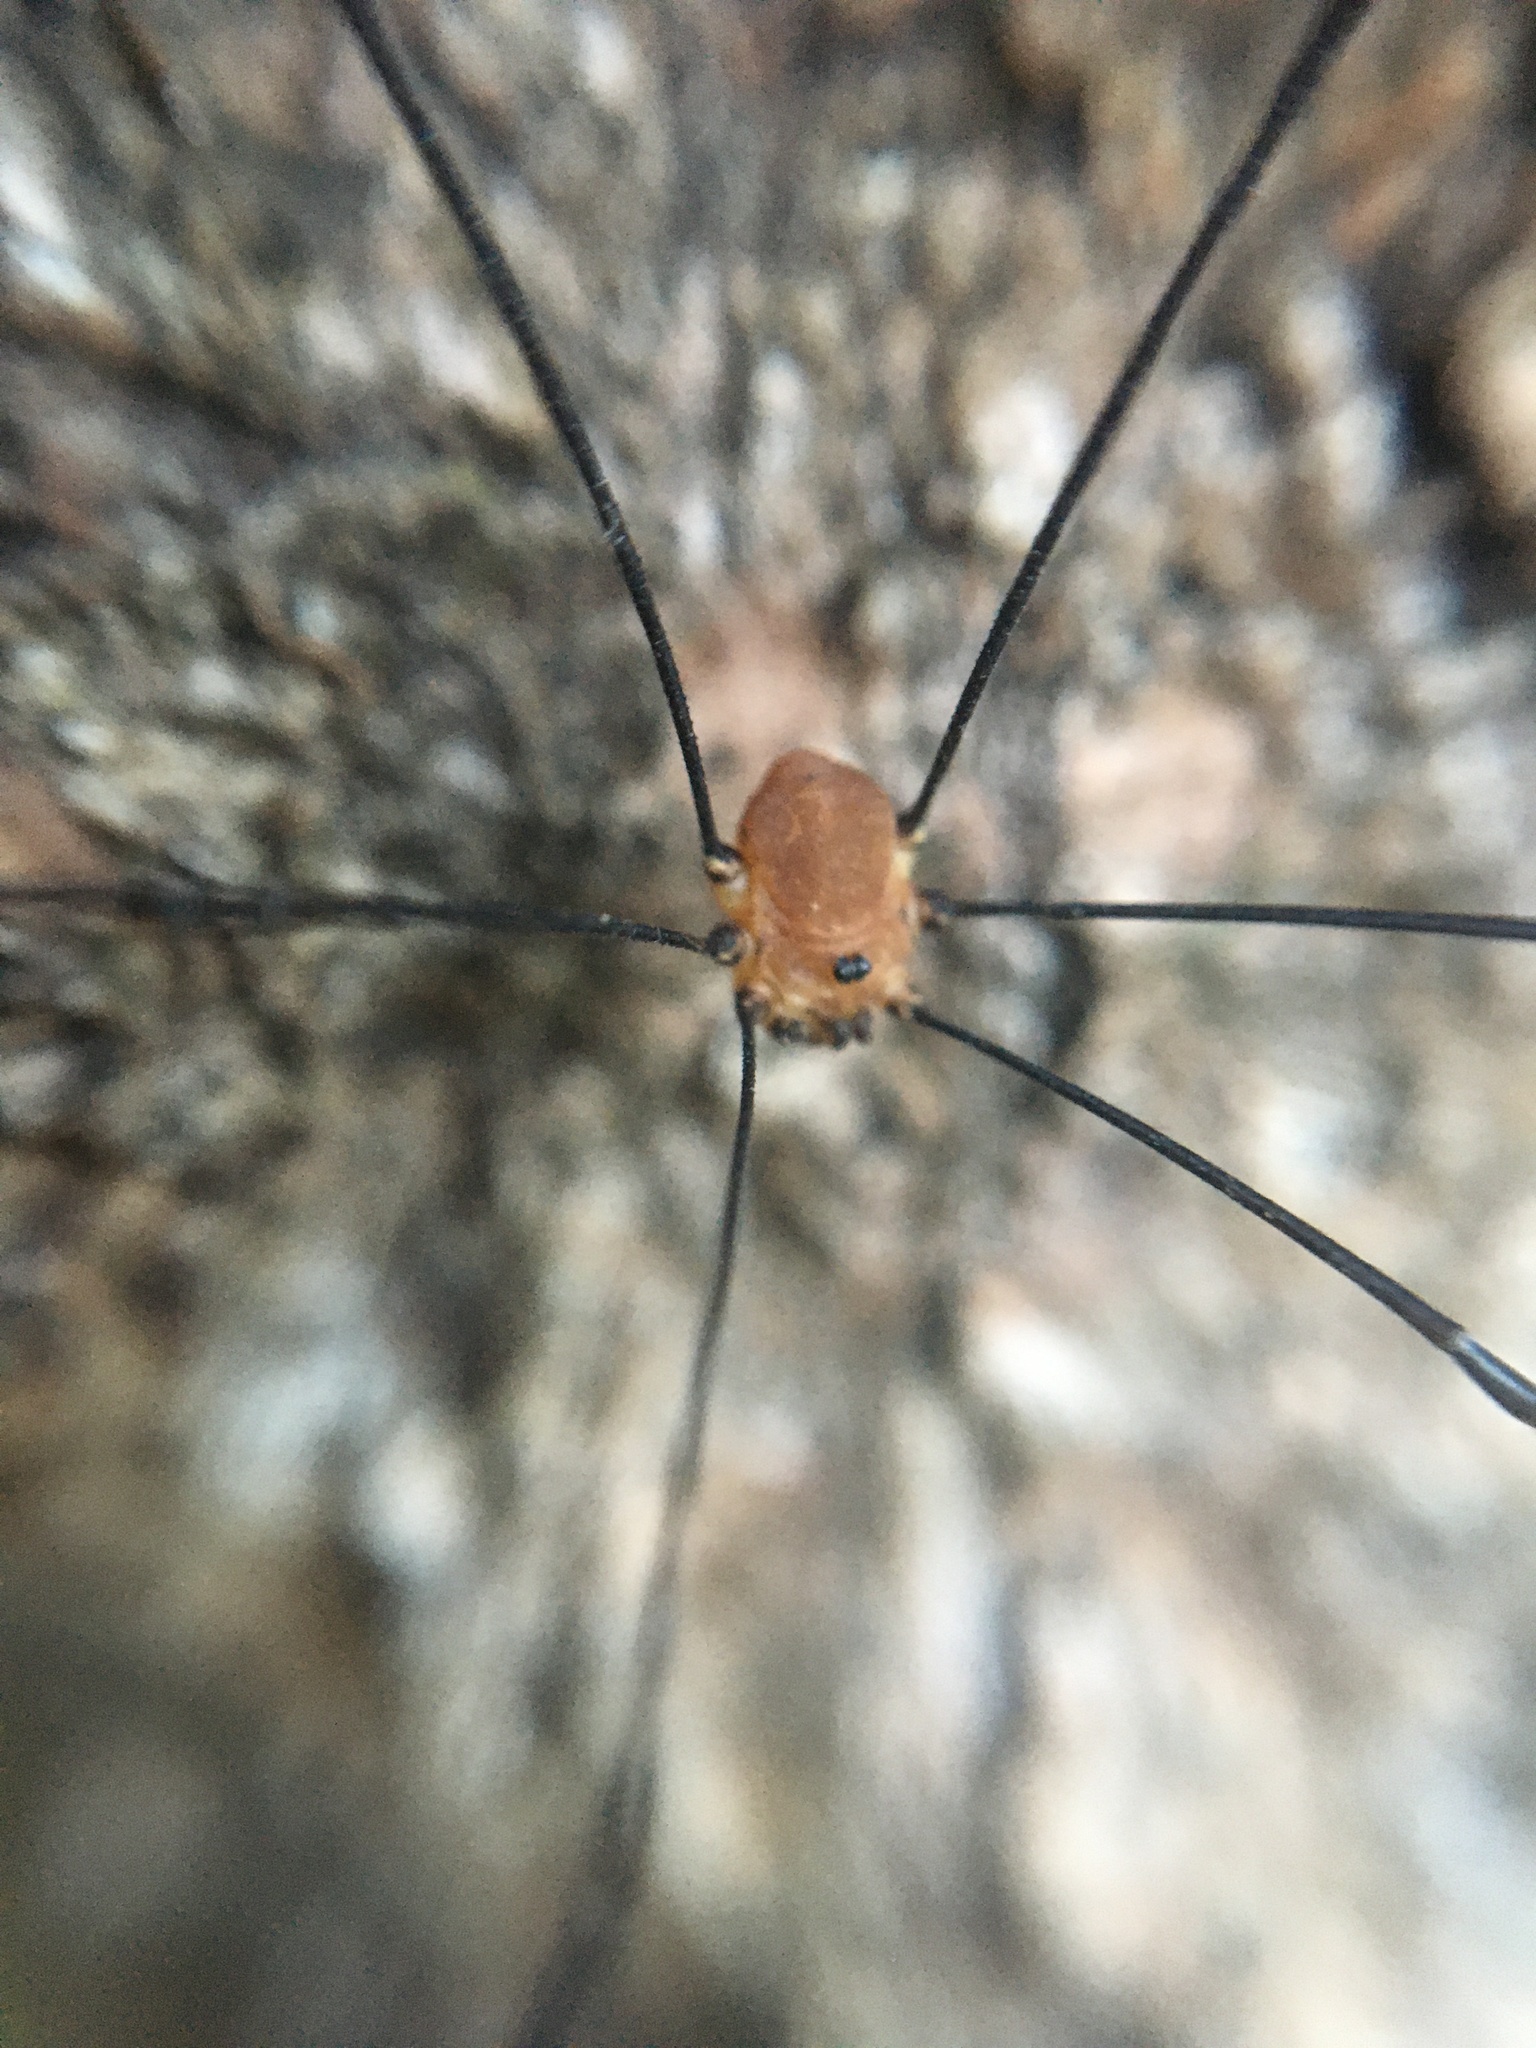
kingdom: Animalia
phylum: Arthropoda
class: Arachnida
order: Opiliones
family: Sclerosomatidae
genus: Leiobunum
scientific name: Leiobunum rotundum
